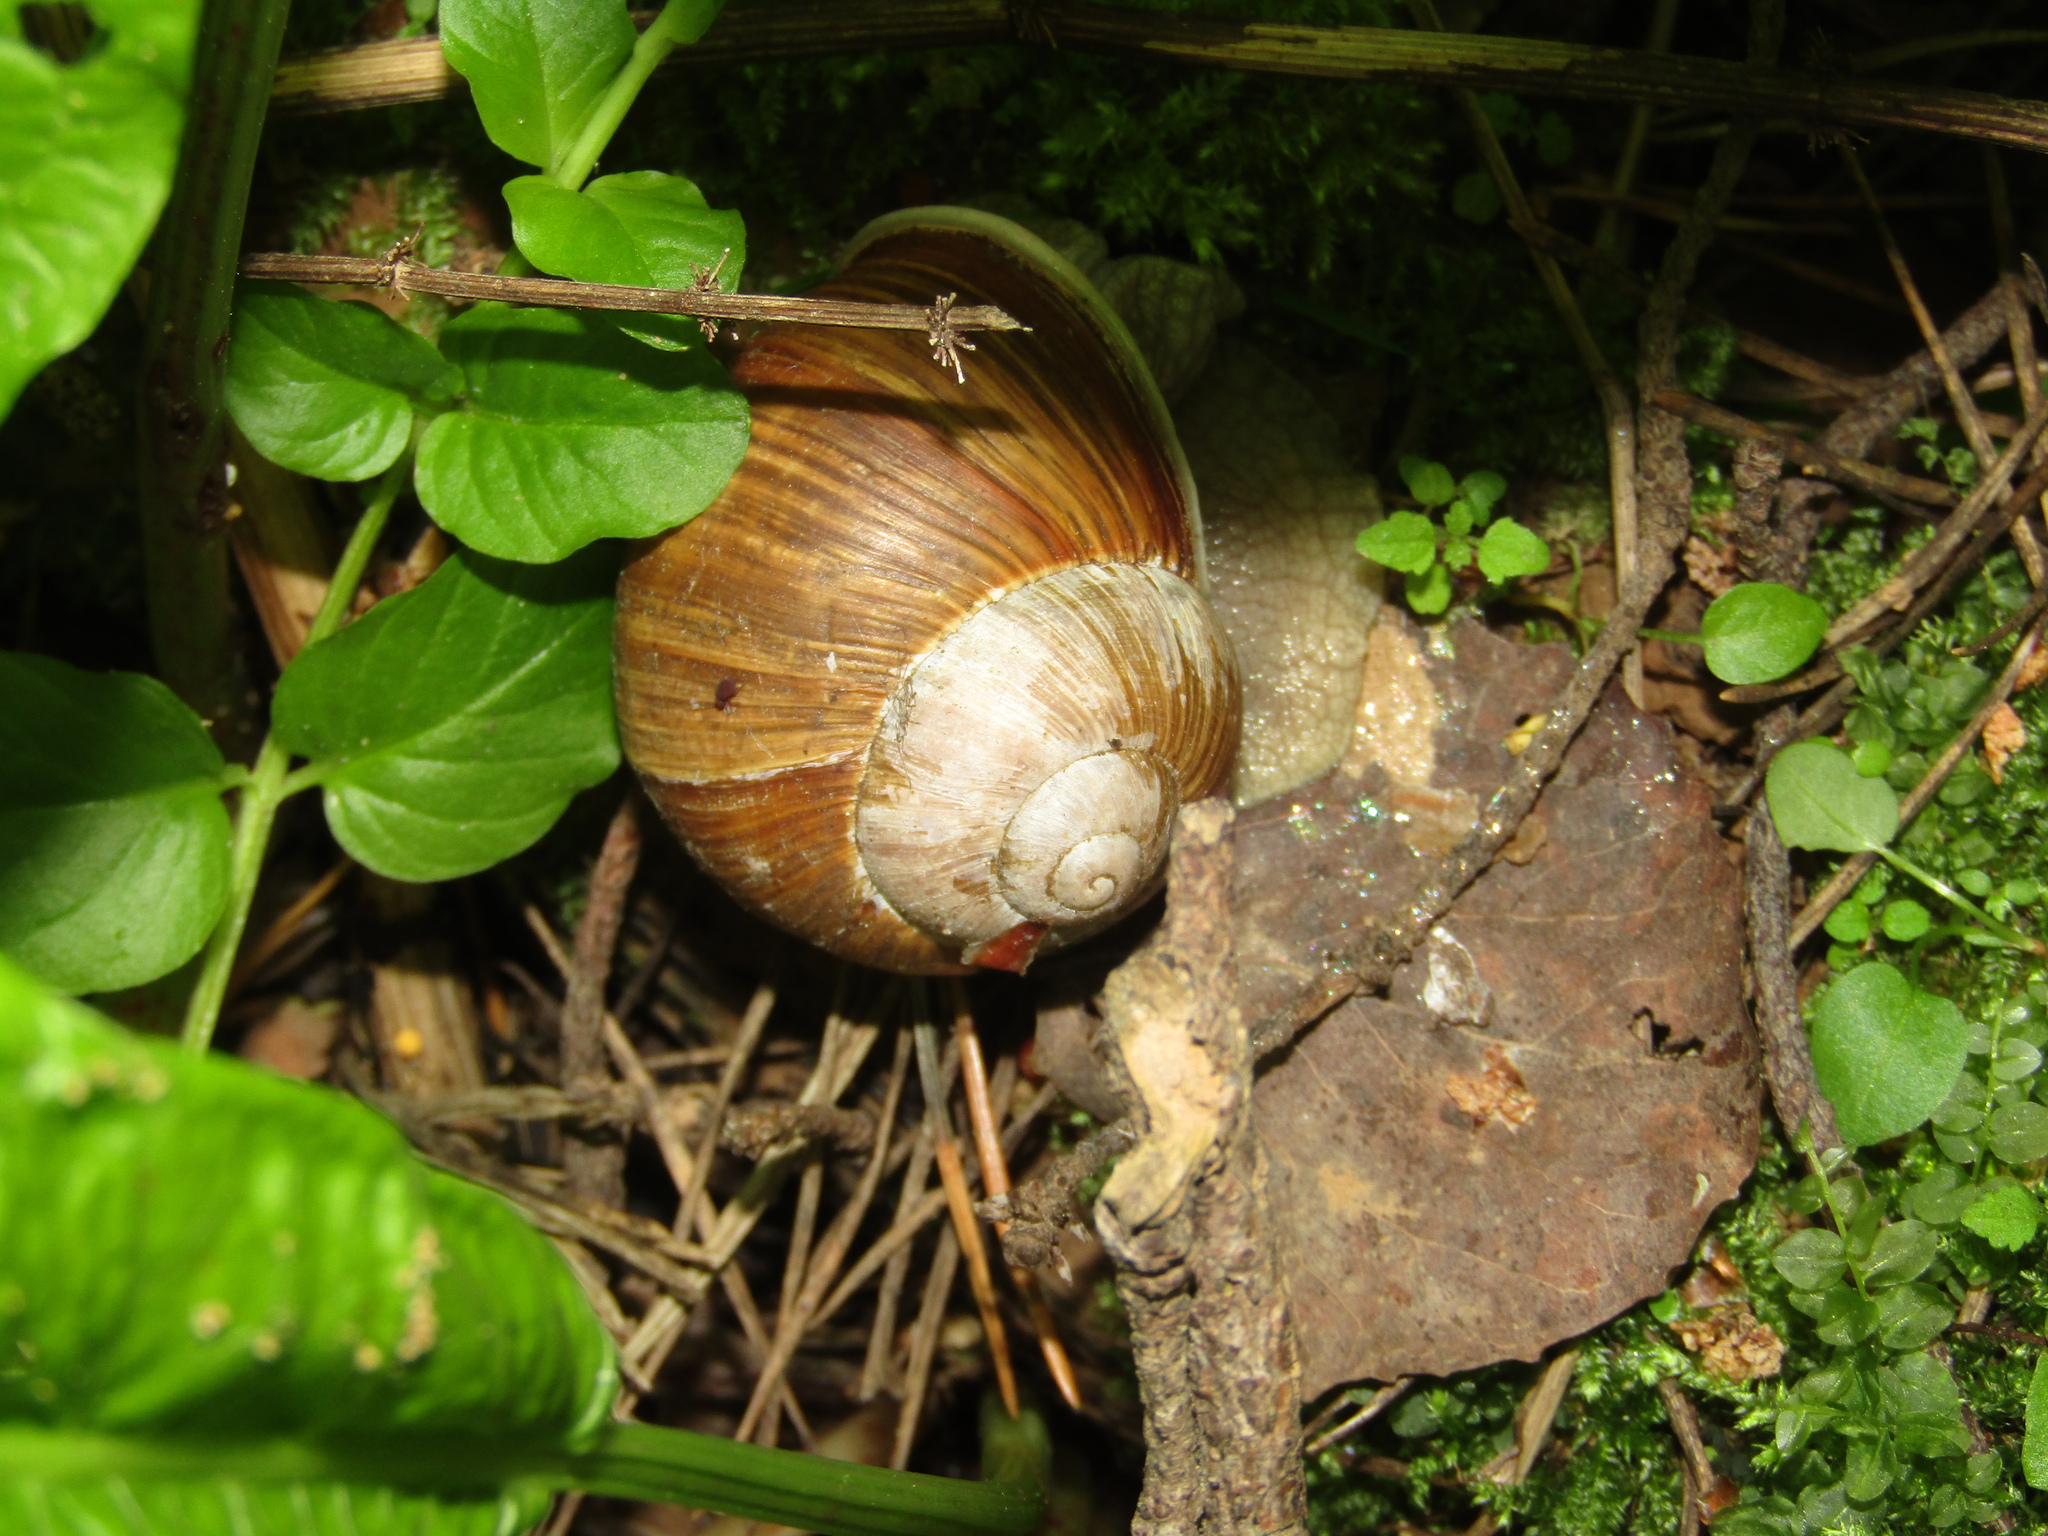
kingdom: Animalia
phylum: Mollusca
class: Gastropoda
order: Stylommatophora
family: Helicidae
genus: Helix
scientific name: Helix pomatia
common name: Roman snail
